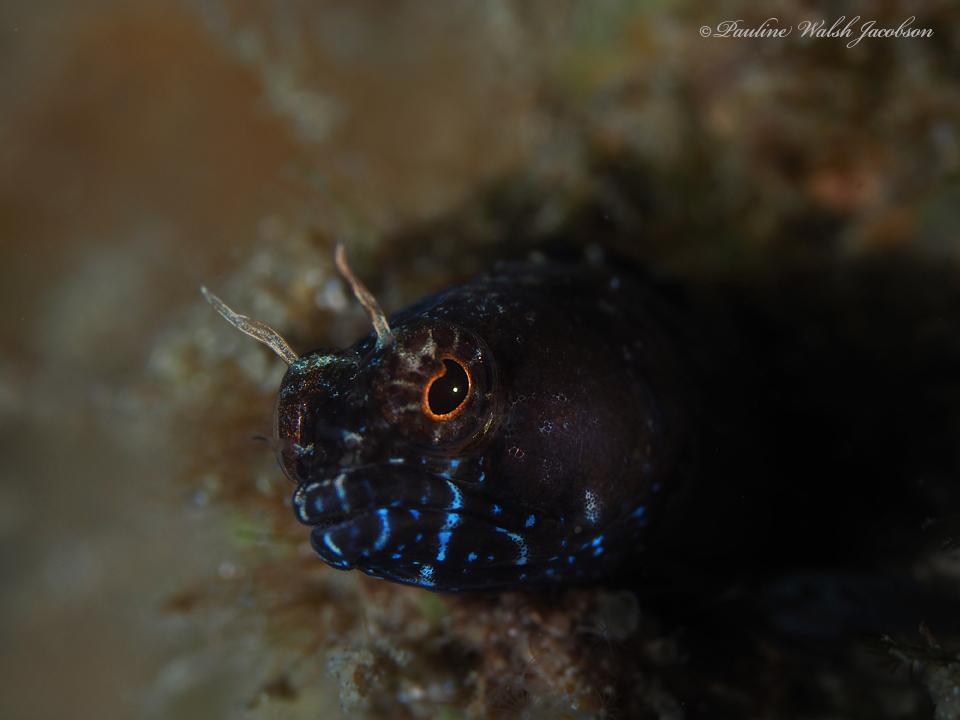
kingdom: Animalia
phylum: Chordata
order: Perciformes
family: Chaenopsidae
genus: Emblemaria
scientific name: Emblemaria pandionis
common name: Sailfin blenny
